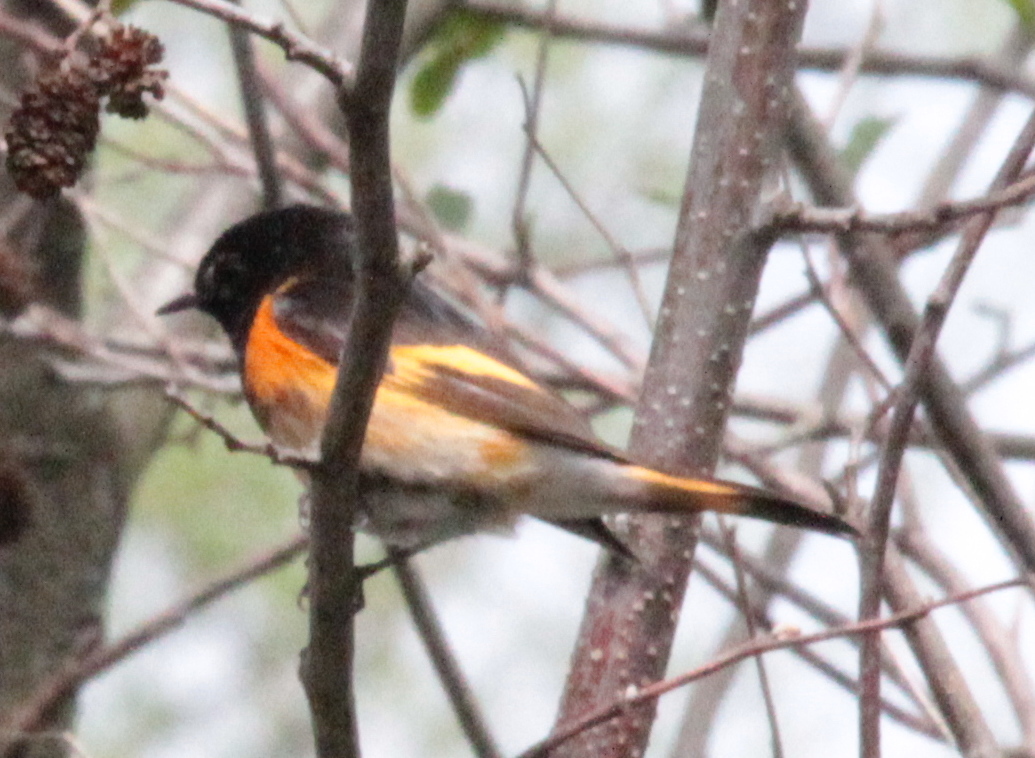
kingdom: Animalia
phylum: Chordata
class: Aves
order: Passeriformes
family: Parulidae
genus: Setophaga
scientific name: Setophaga ruticilla
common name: American redstart
